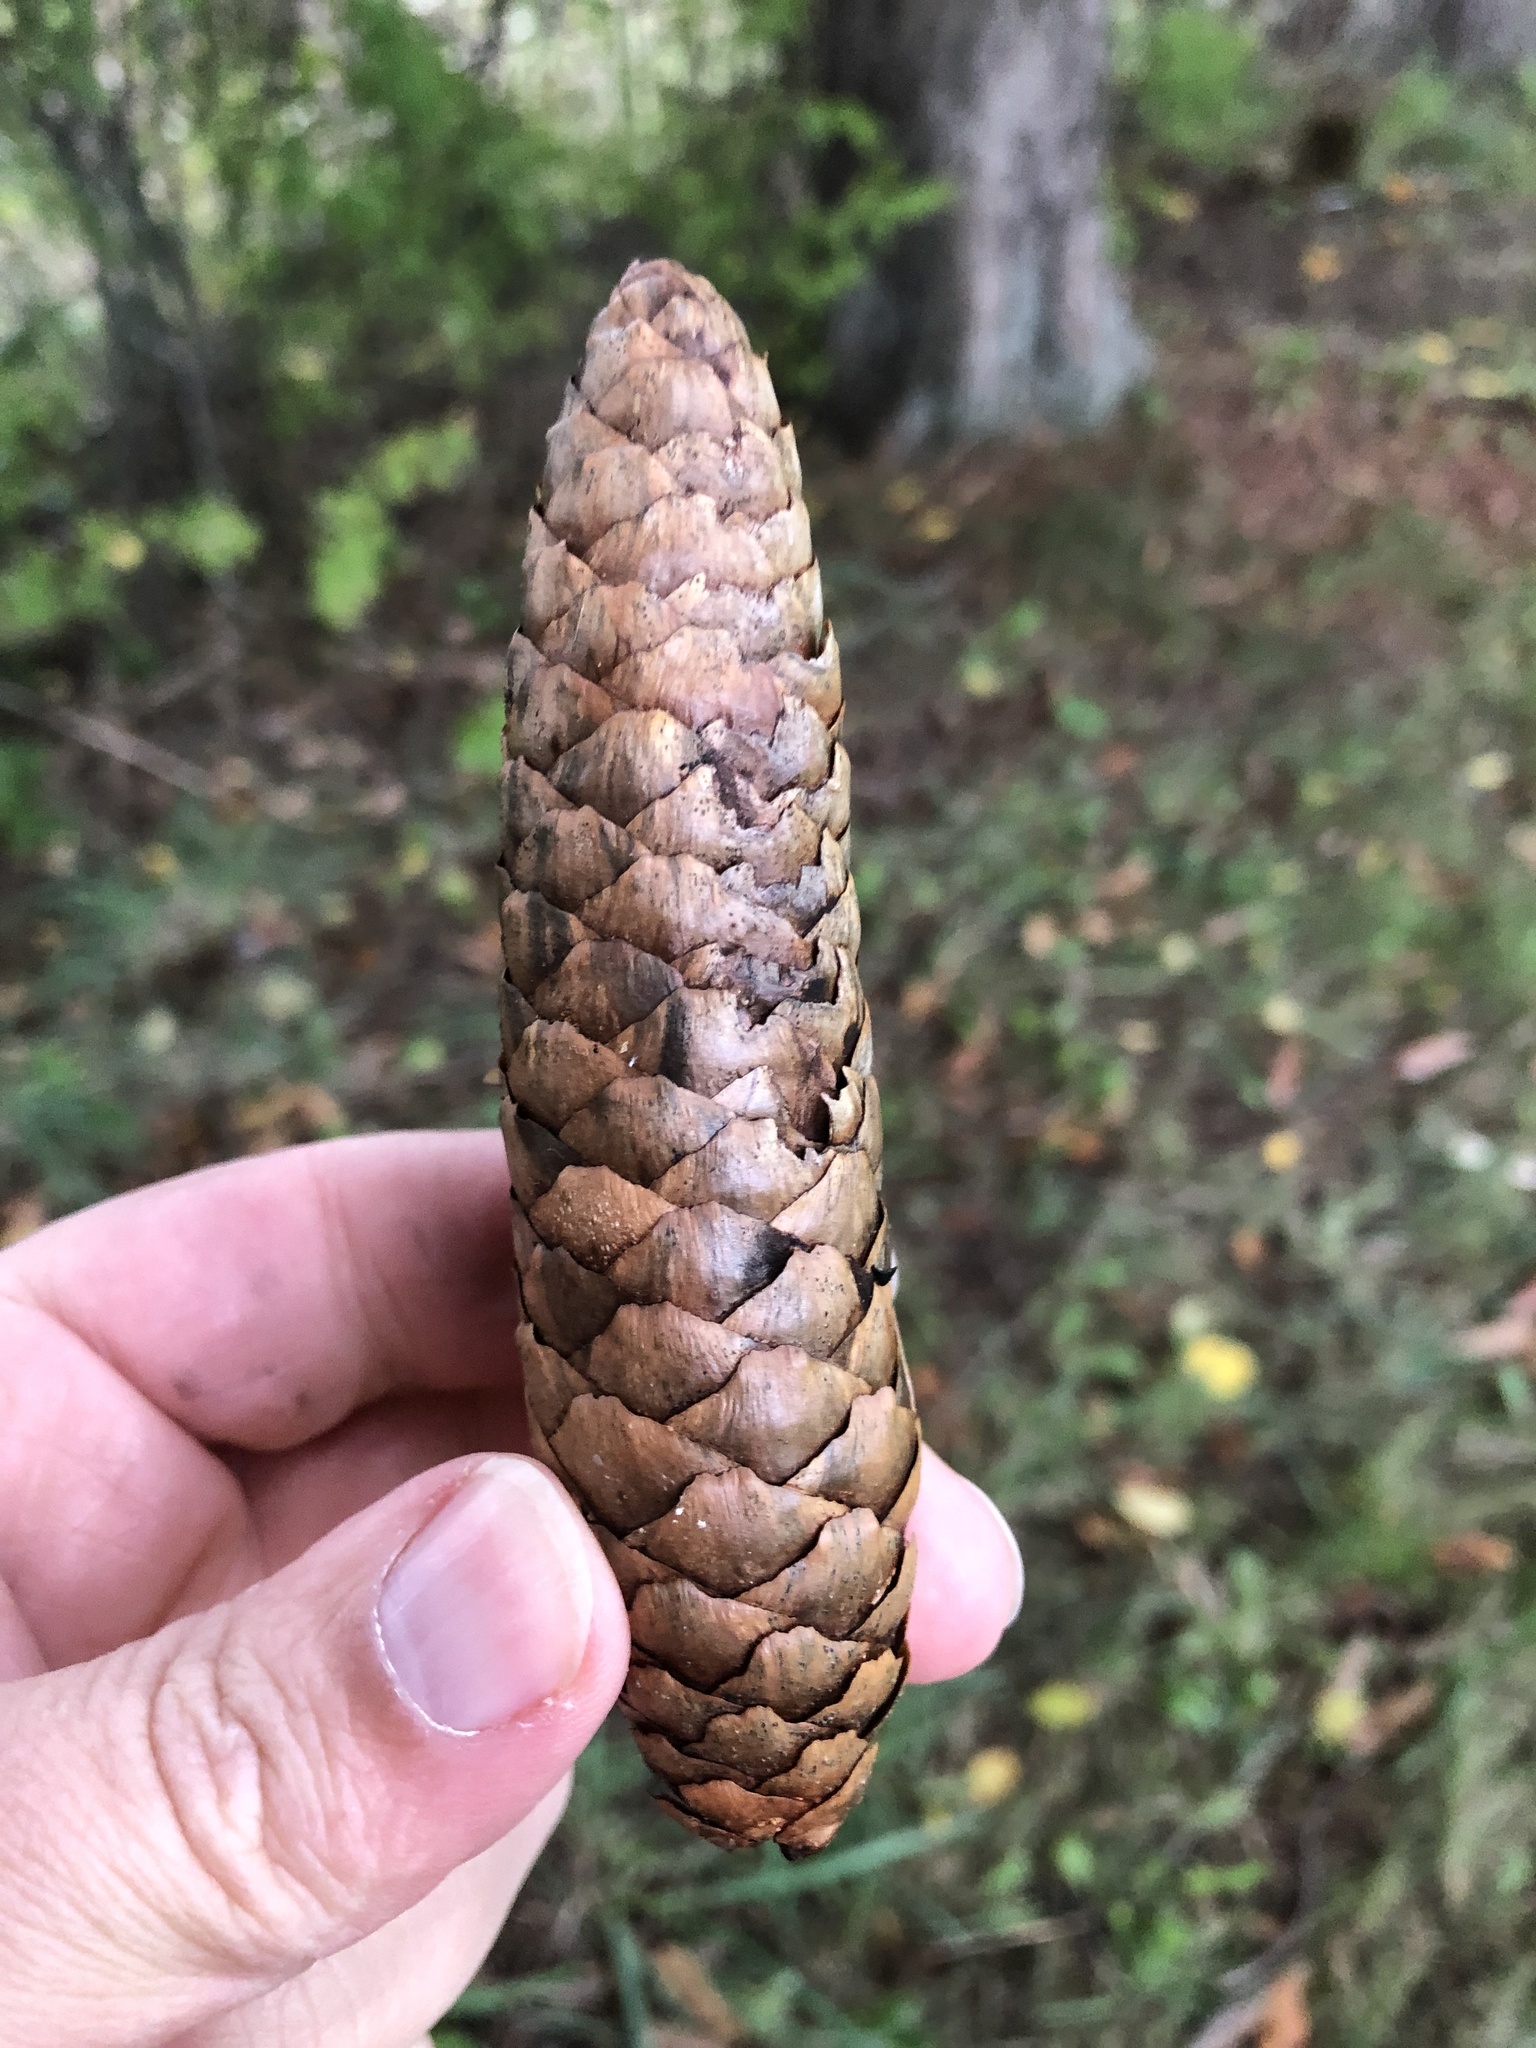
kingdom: Plantae
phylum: Tracheophyta
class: Pinopsida
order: Pinales
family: Pinaceae
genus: Picea
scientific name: Picea abies
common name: Norway spruce
